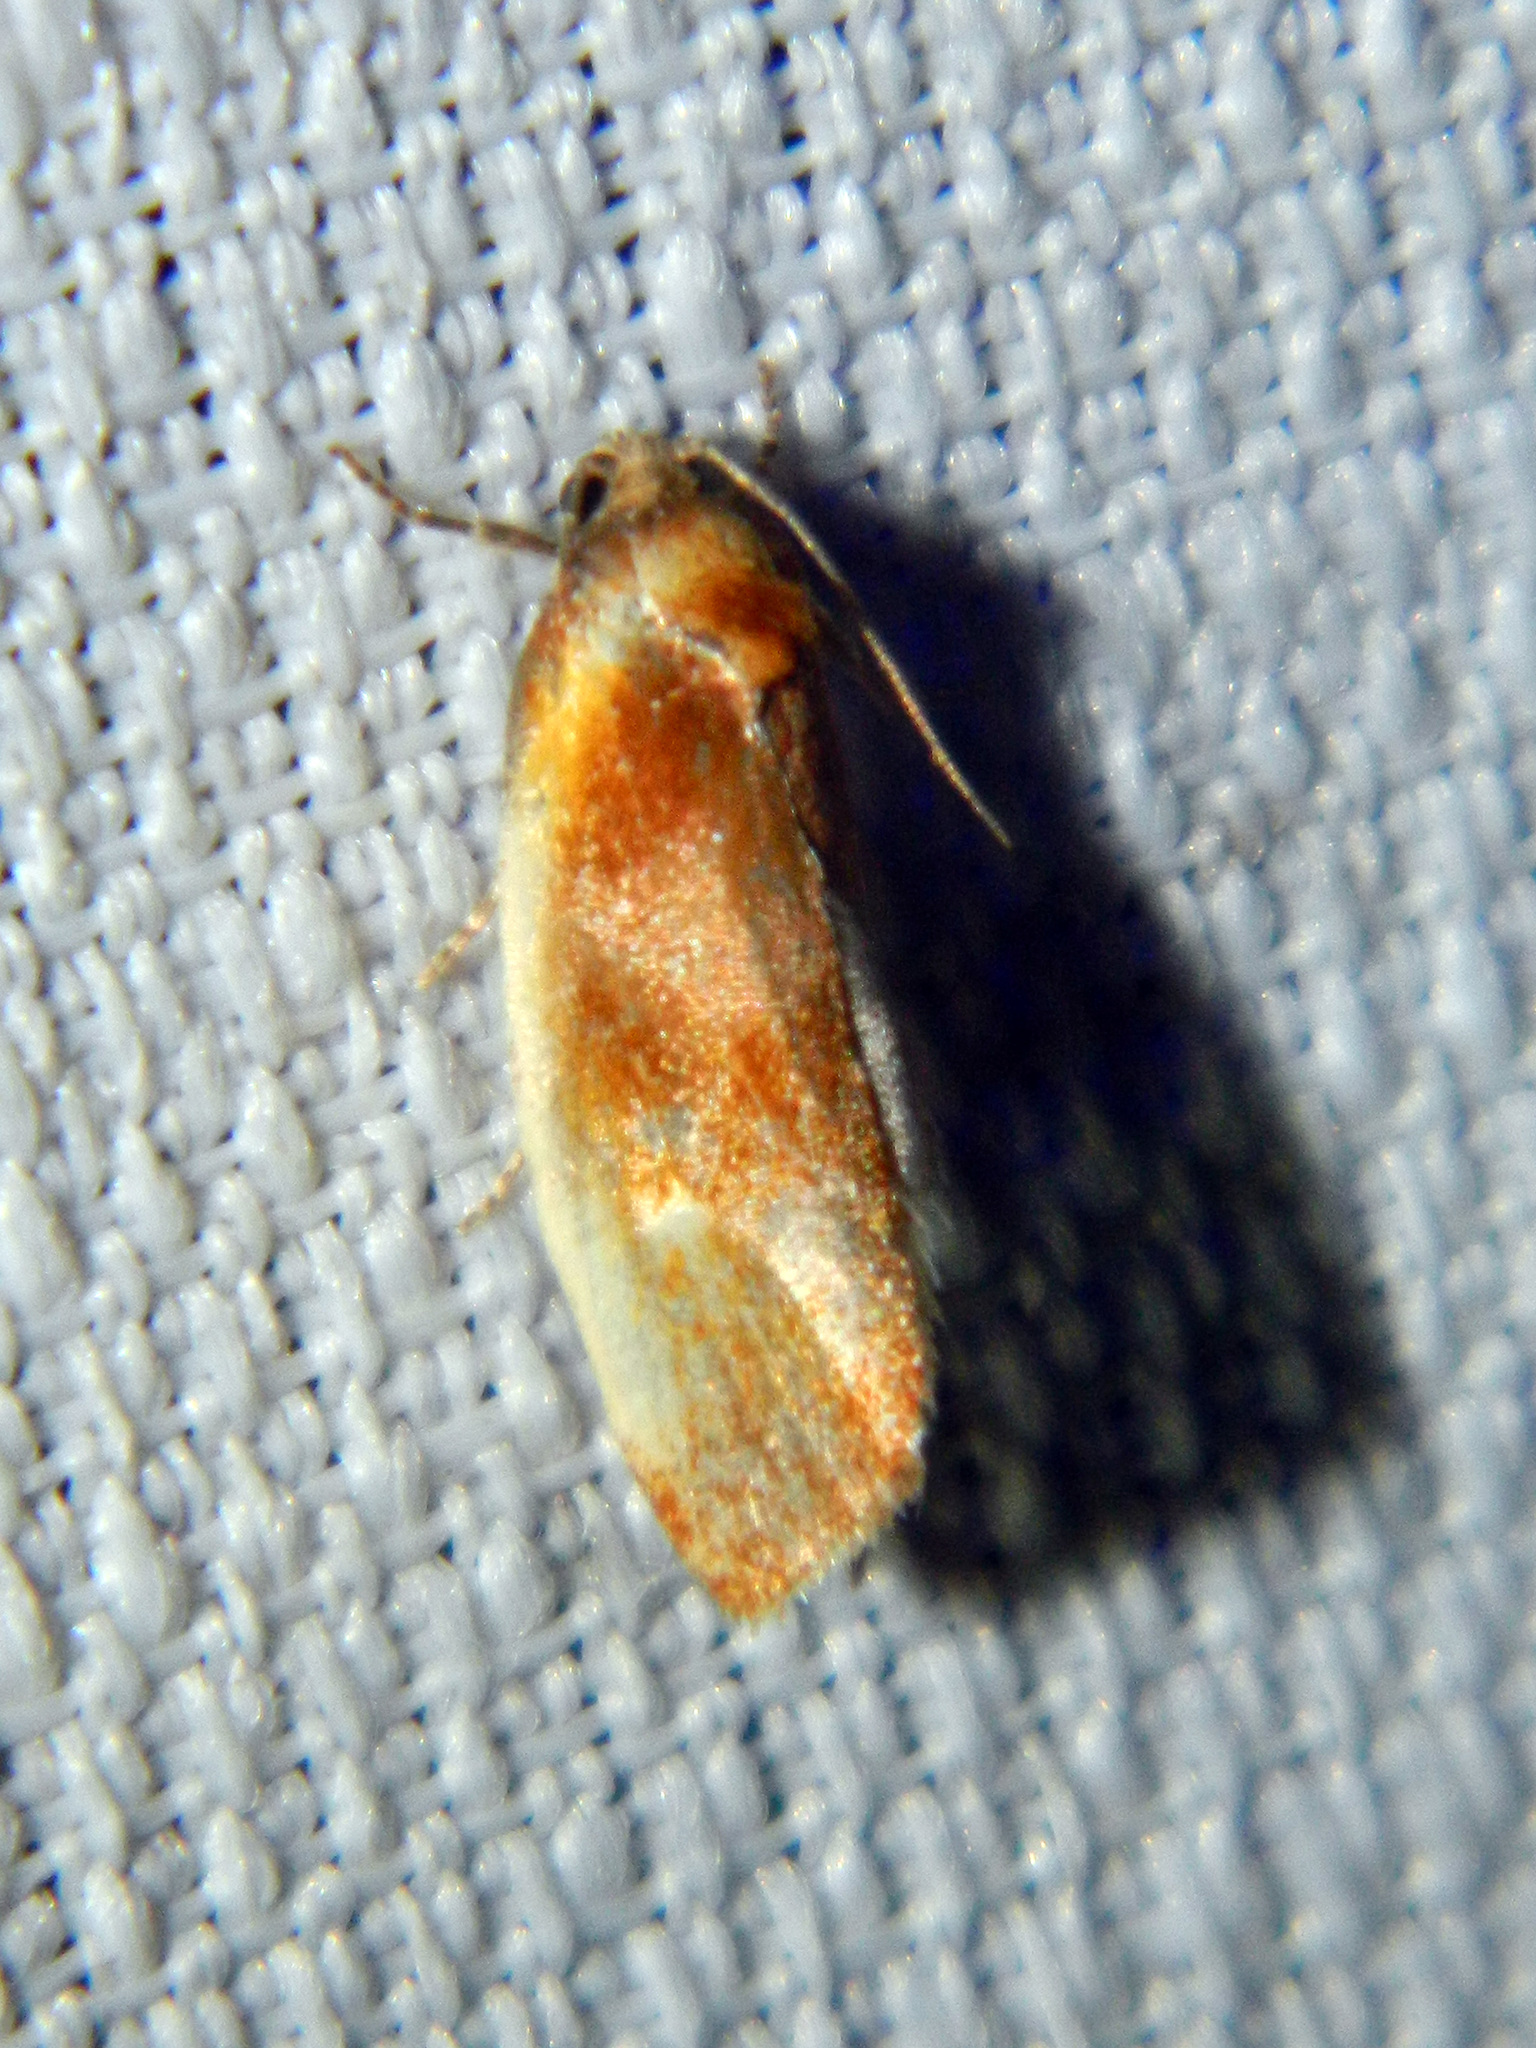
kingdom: Animalia
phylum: Arthropoda
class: Insecta
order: Lepidoptera
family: Tortricidae
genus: Eulia
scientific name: Eulia ministrana
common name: Brassy twist
